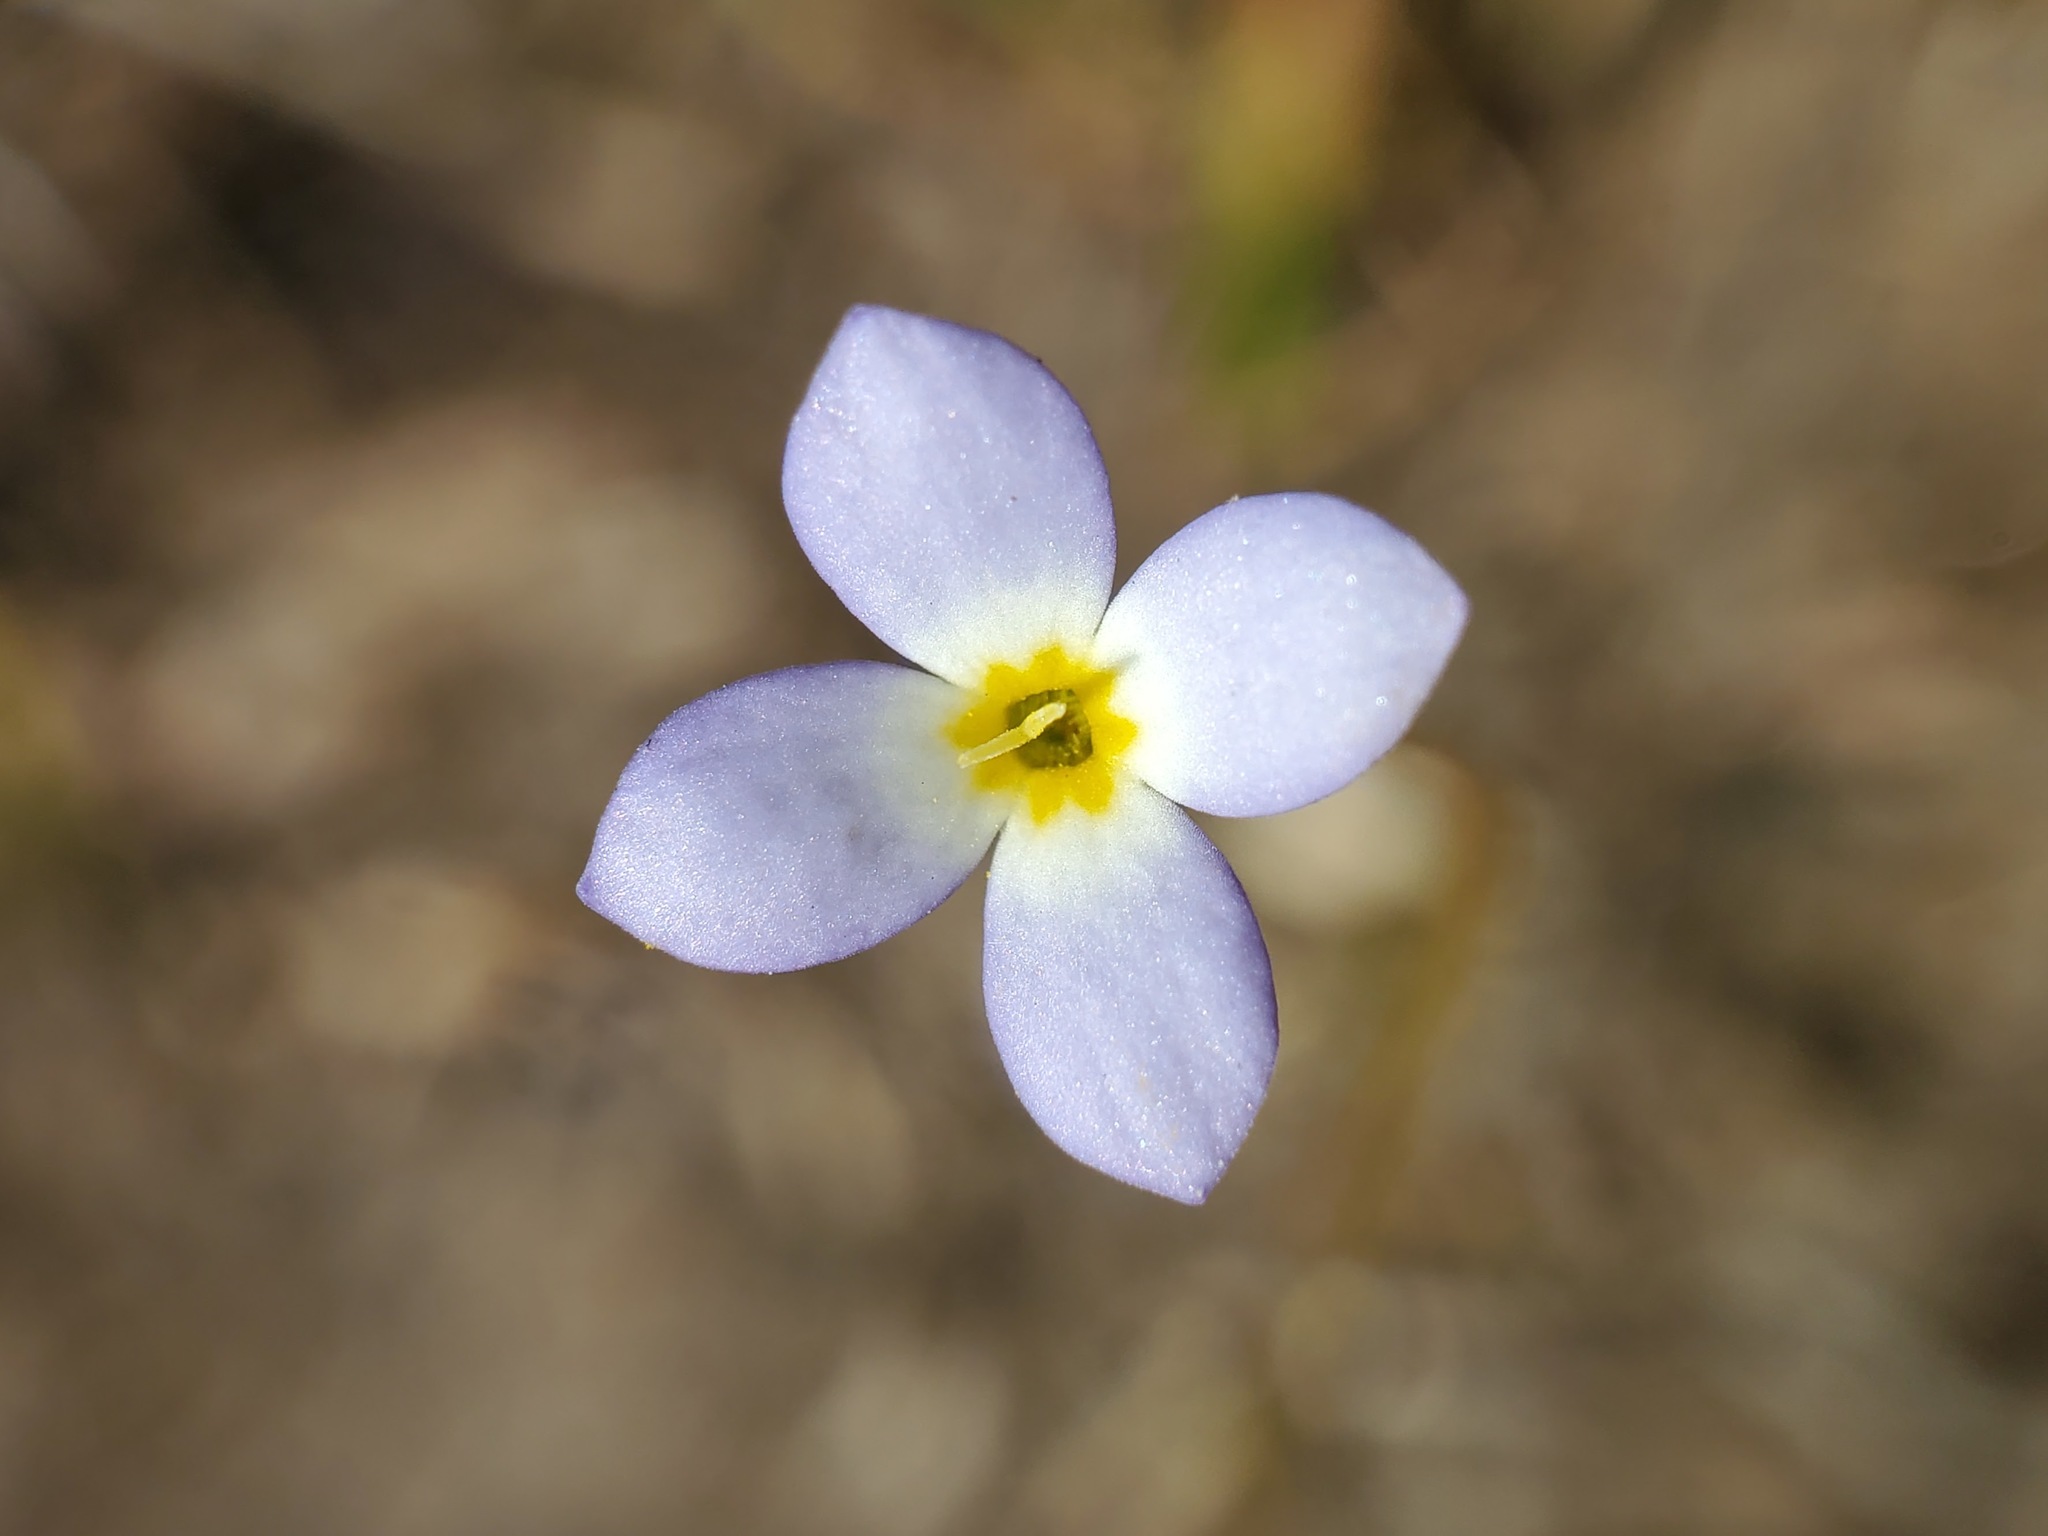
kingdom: Plantae
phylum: Tracheophyta
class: Magnoliopsida
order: Gentianales
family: Rubiaceae
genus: Houstonia
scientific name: Houstonia caerulea
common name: Bluets
